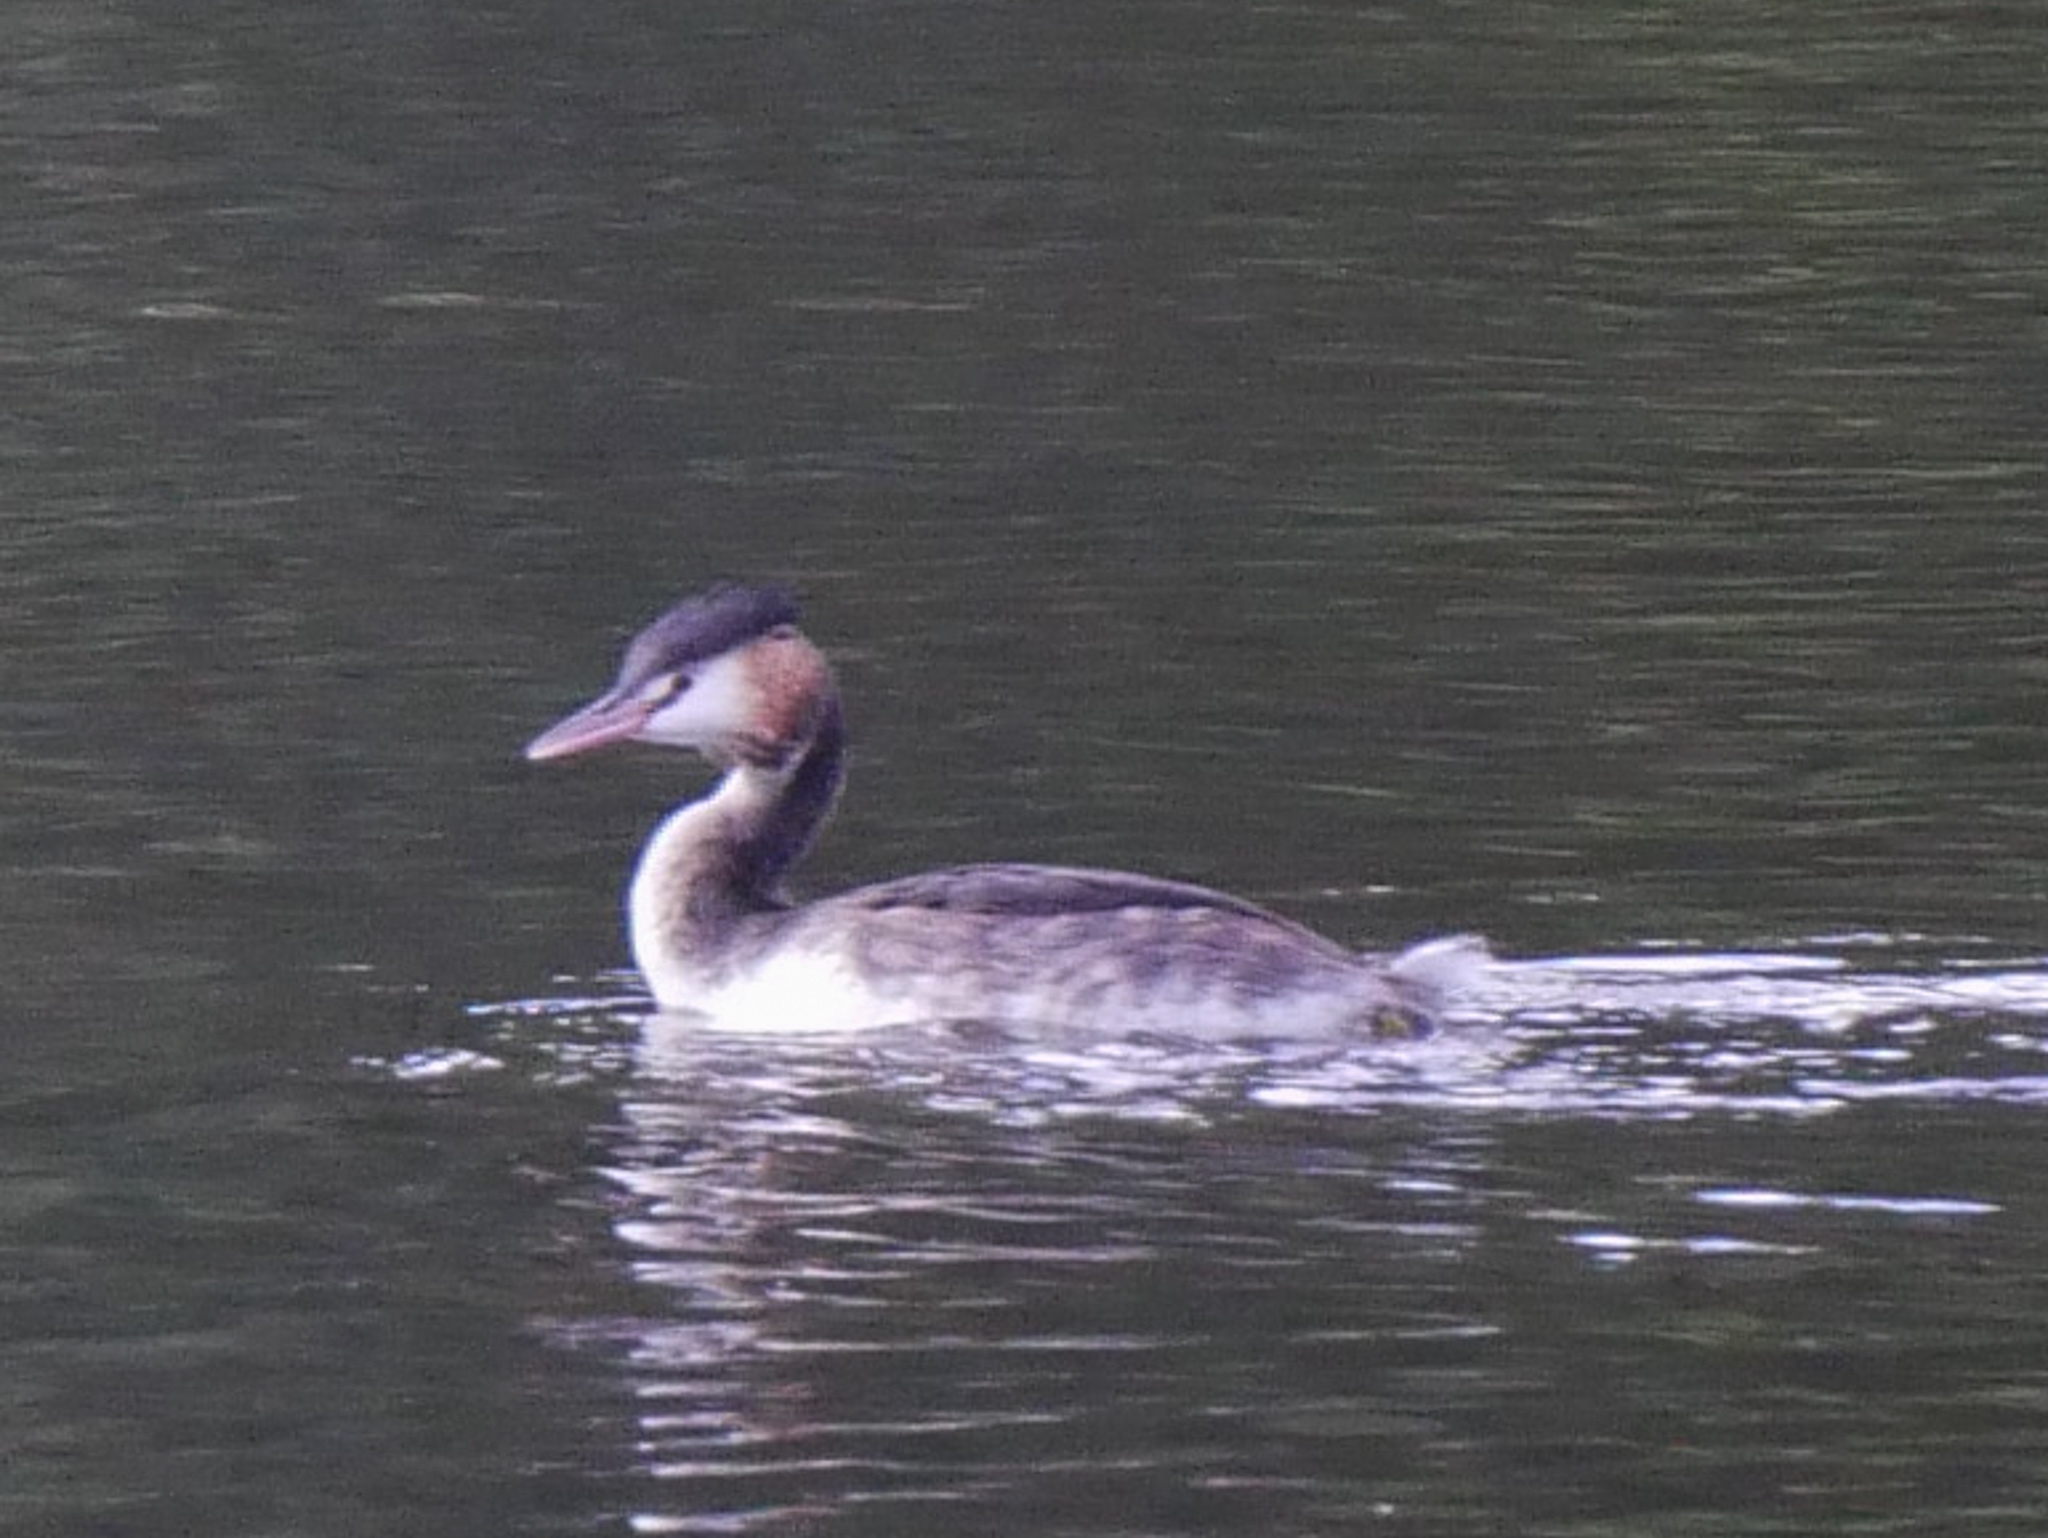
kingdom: Animalia
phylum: Chordata
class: Aves
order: Podicipediformes
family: Podicipedidae
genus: Podiceps
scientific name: Podiceps cristatus
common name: Great crested grebe
